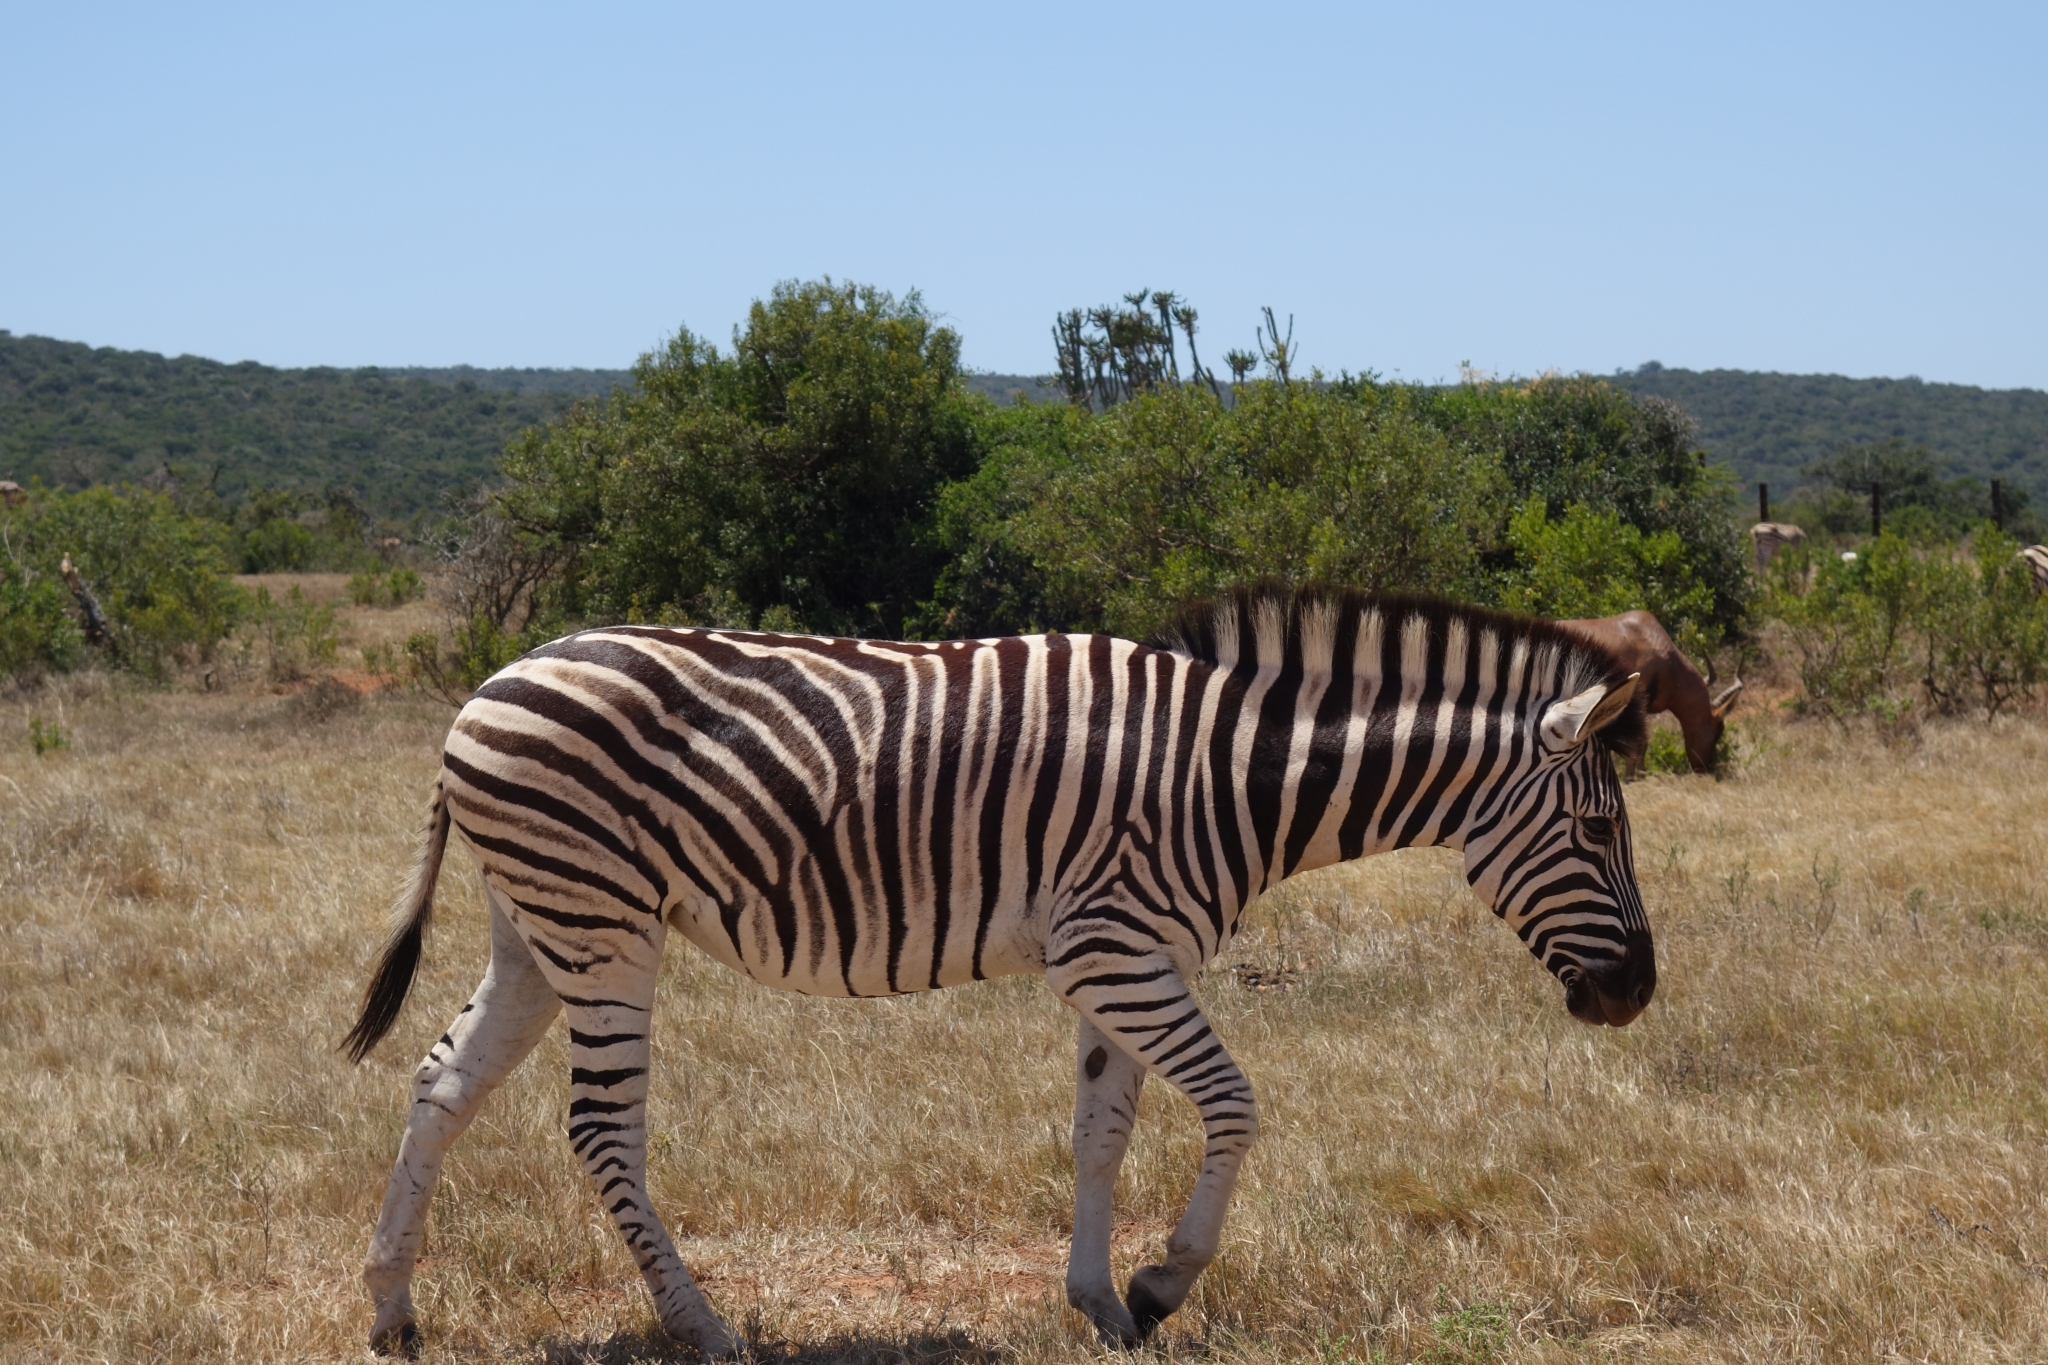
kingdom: Animalia
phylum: Chordata
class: Mammalia
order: Perissodactyla
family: Equidae
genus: Equus
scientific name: Equus quagga
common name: Plains zebra
